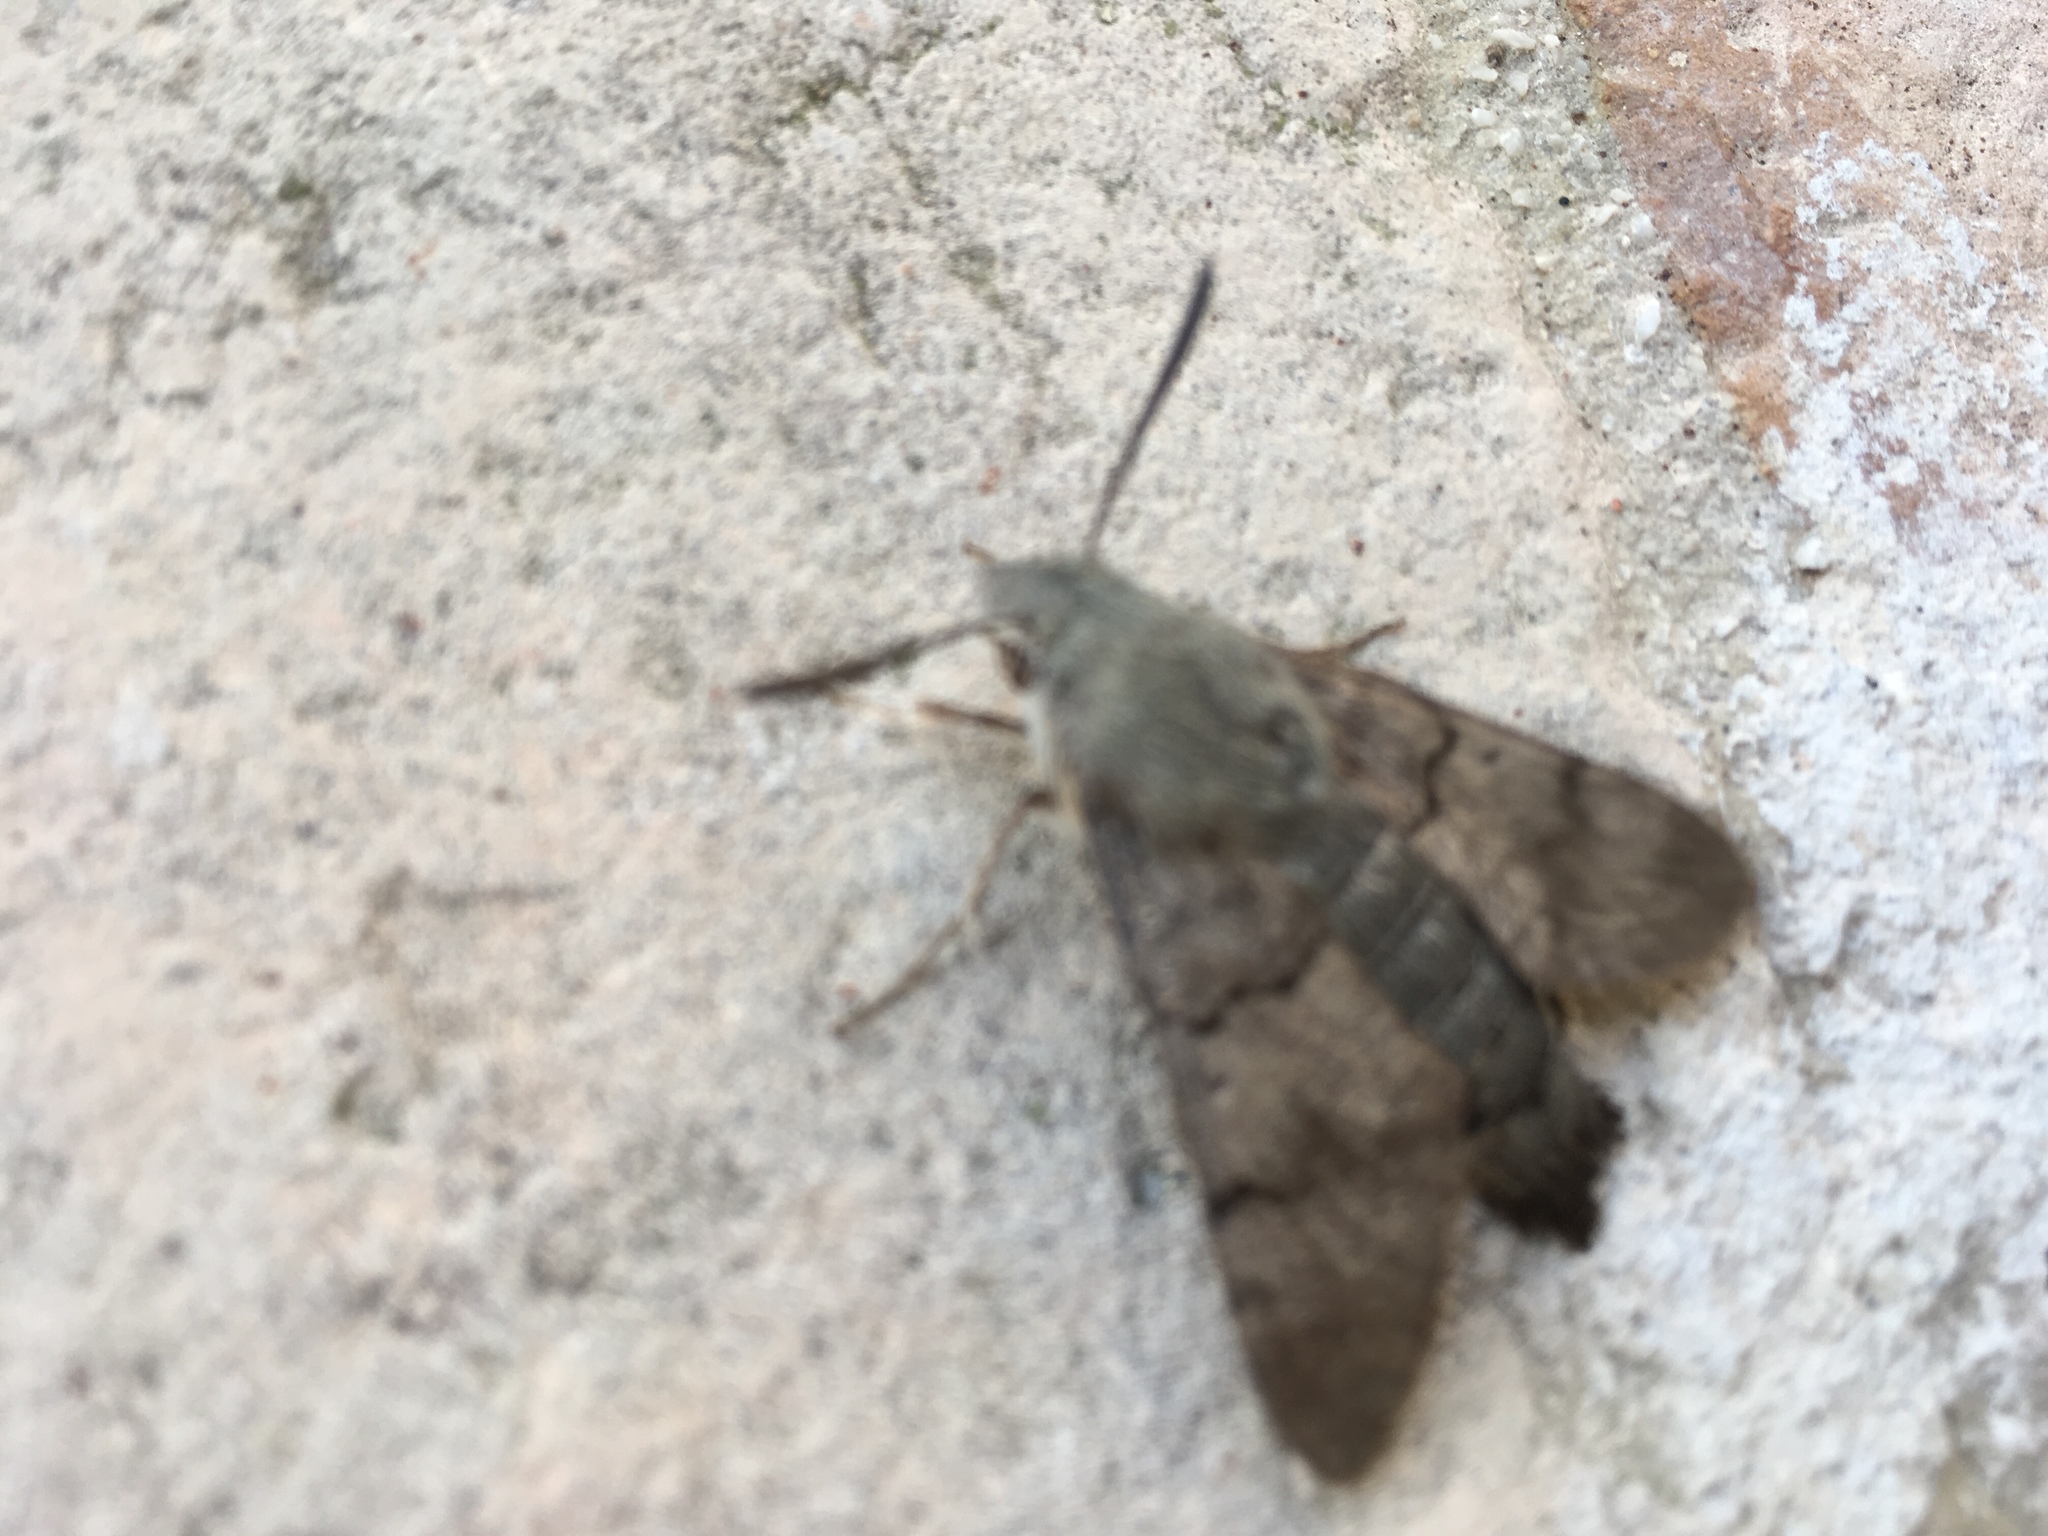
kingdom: Animalia
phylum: Arthropoda
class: Insecta
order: Lepidoptera
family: Sphingidae
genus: Macroglossum
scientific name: Macroglossum stellatarum
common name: Humming-bird hawk-moth
